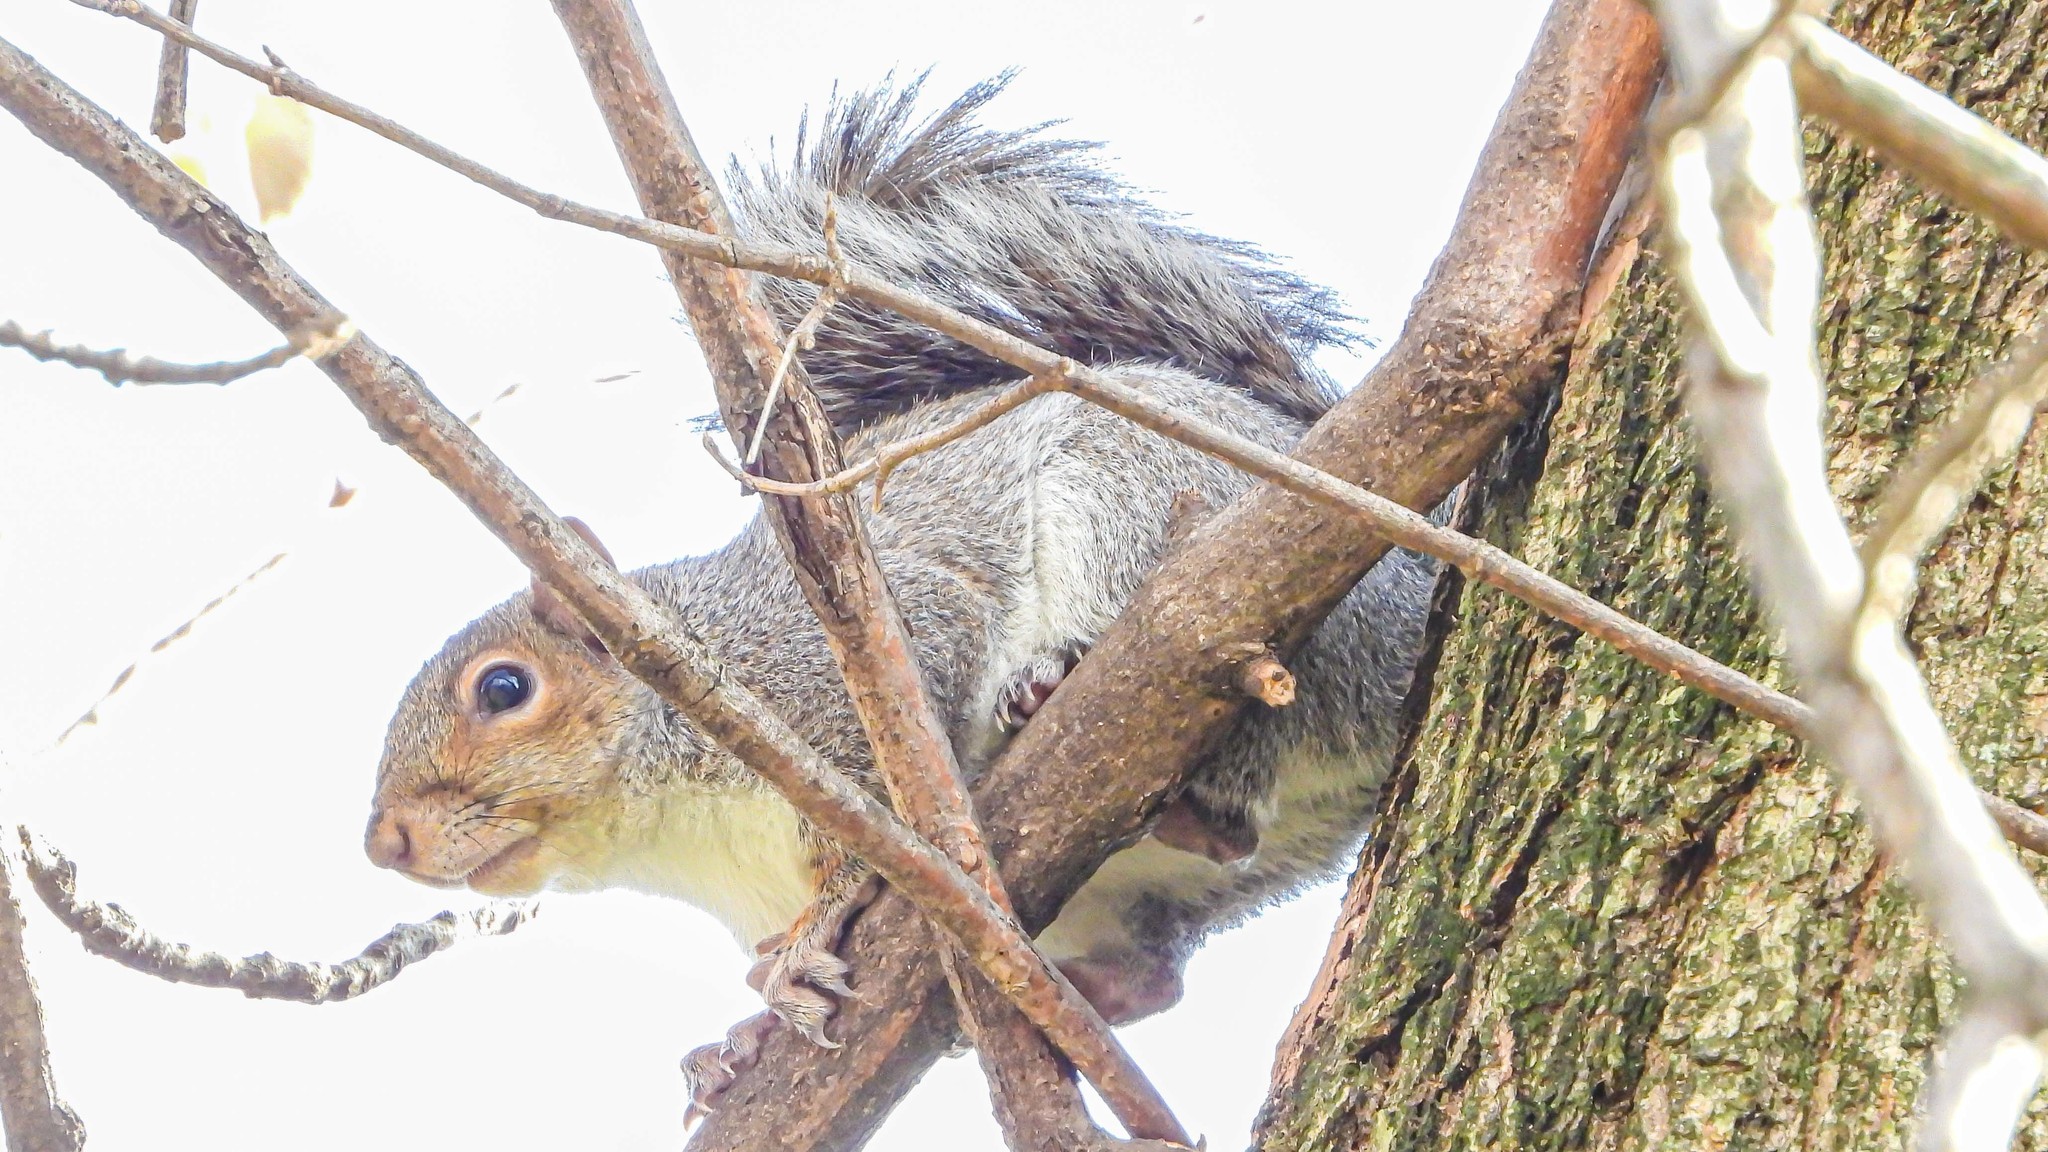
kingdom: Animalia
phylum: Chordata
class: Mammalia
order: Rodentia
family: Sciuridae
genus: Sciurus
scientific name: Sciurus carolinensis
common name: Eastern gray squirrel
